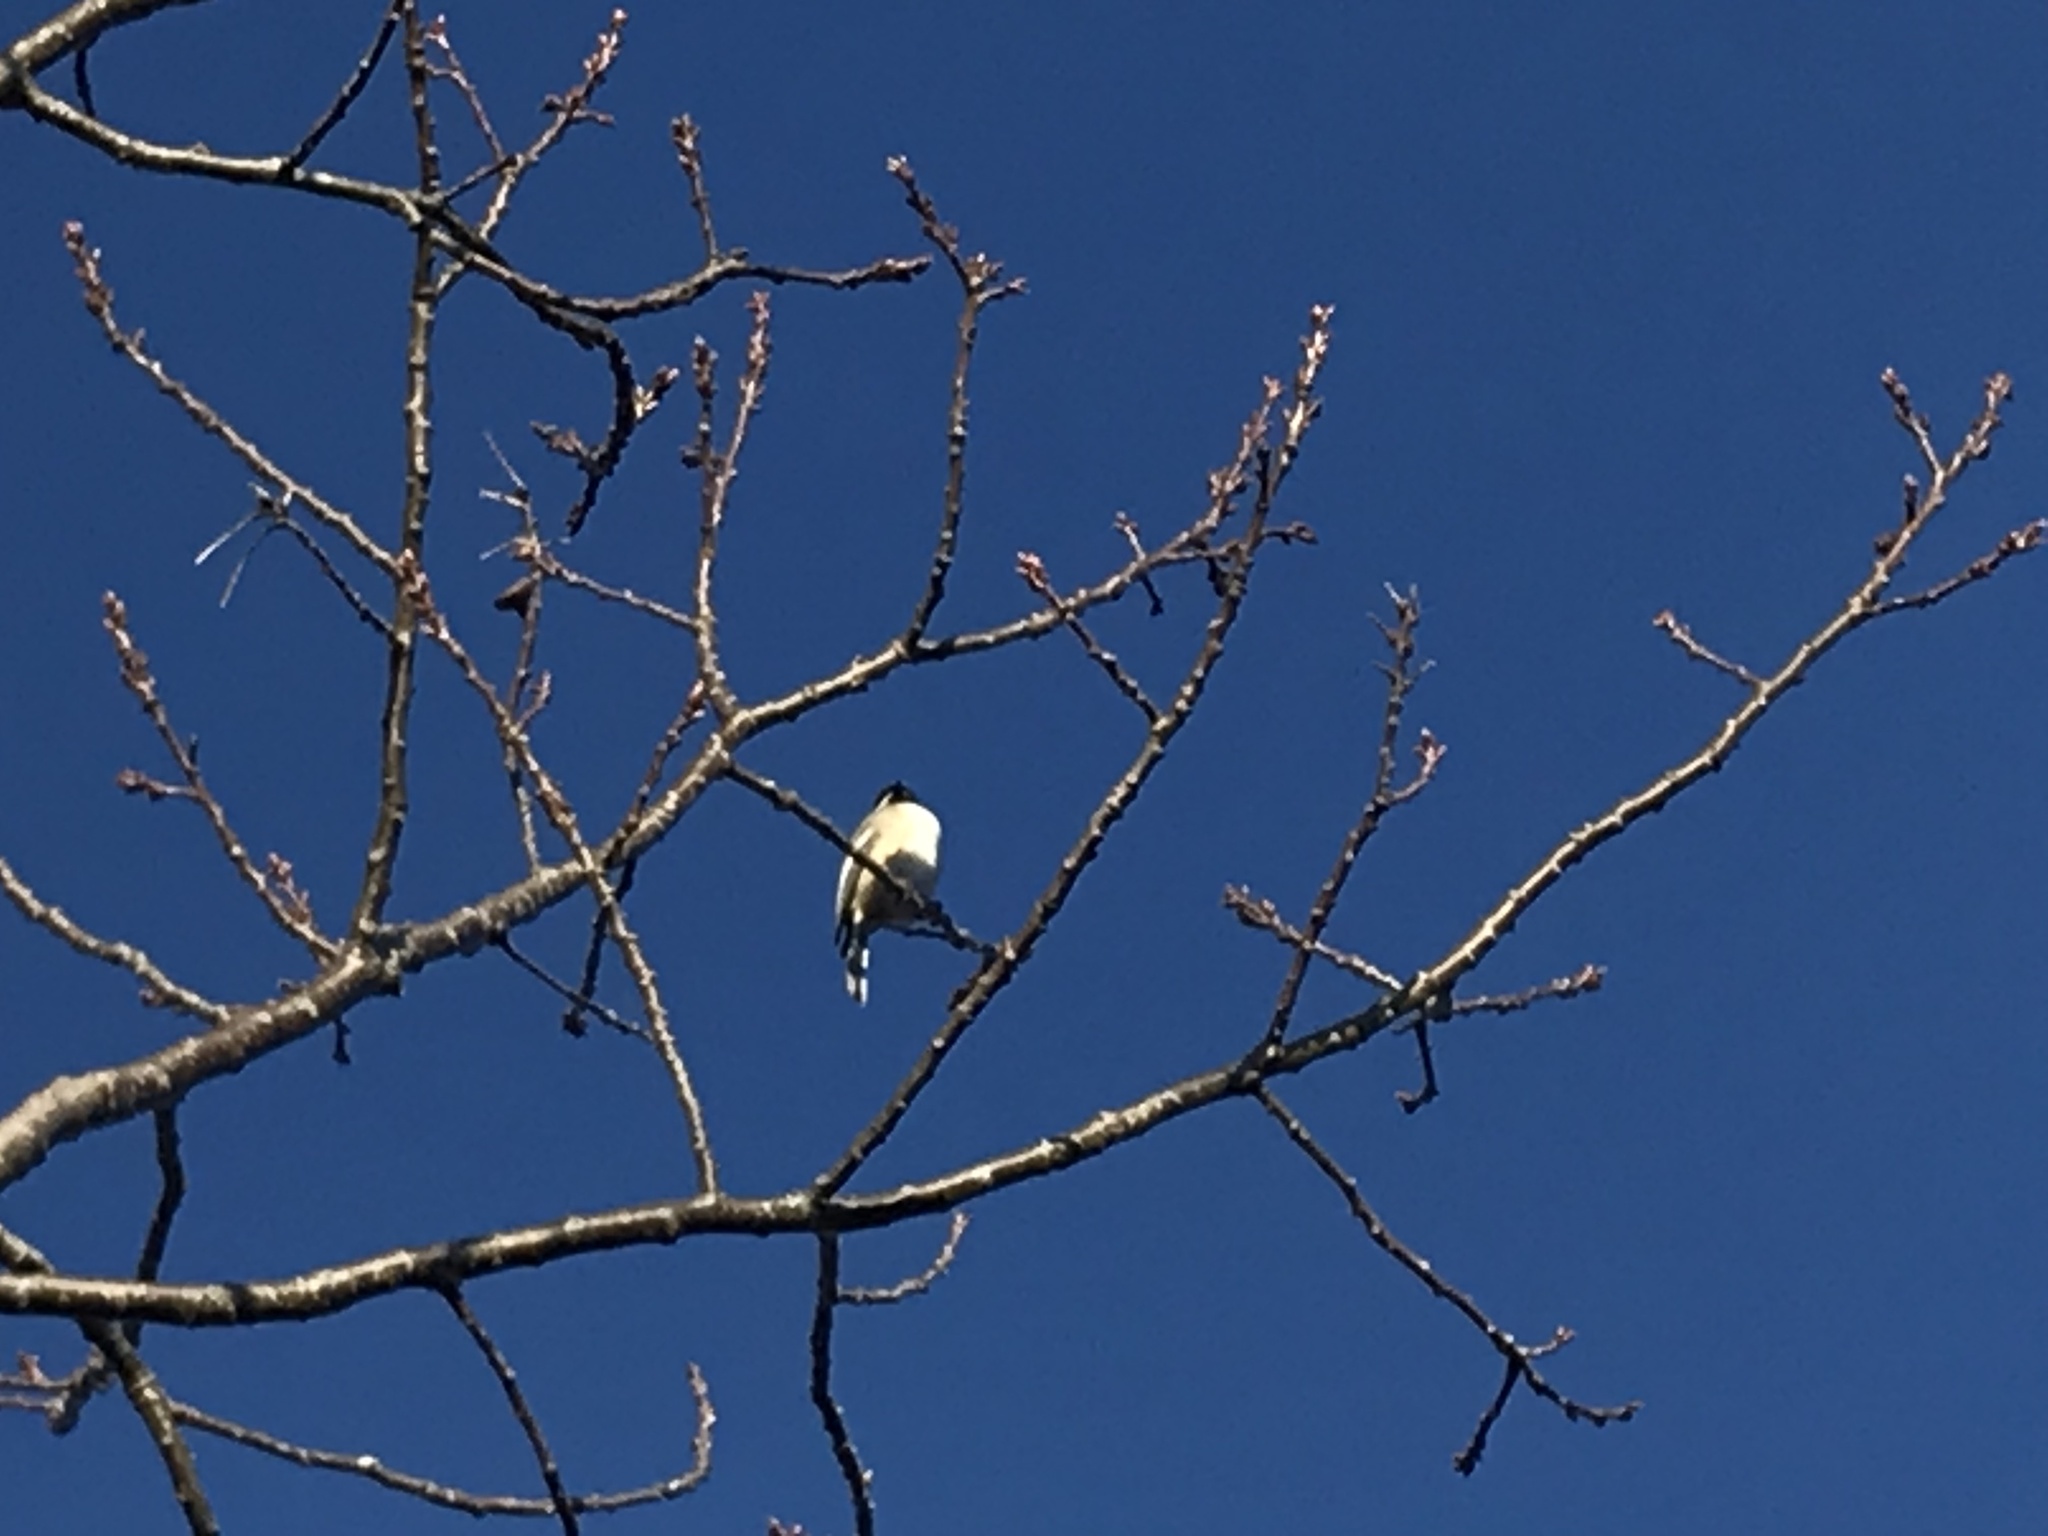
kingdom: Animalia
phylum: Chordata
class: Aves
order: Passeriformes
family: Paridae
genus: Poecile
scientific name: Poecile atricapillus
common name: Black-capped chickadee
